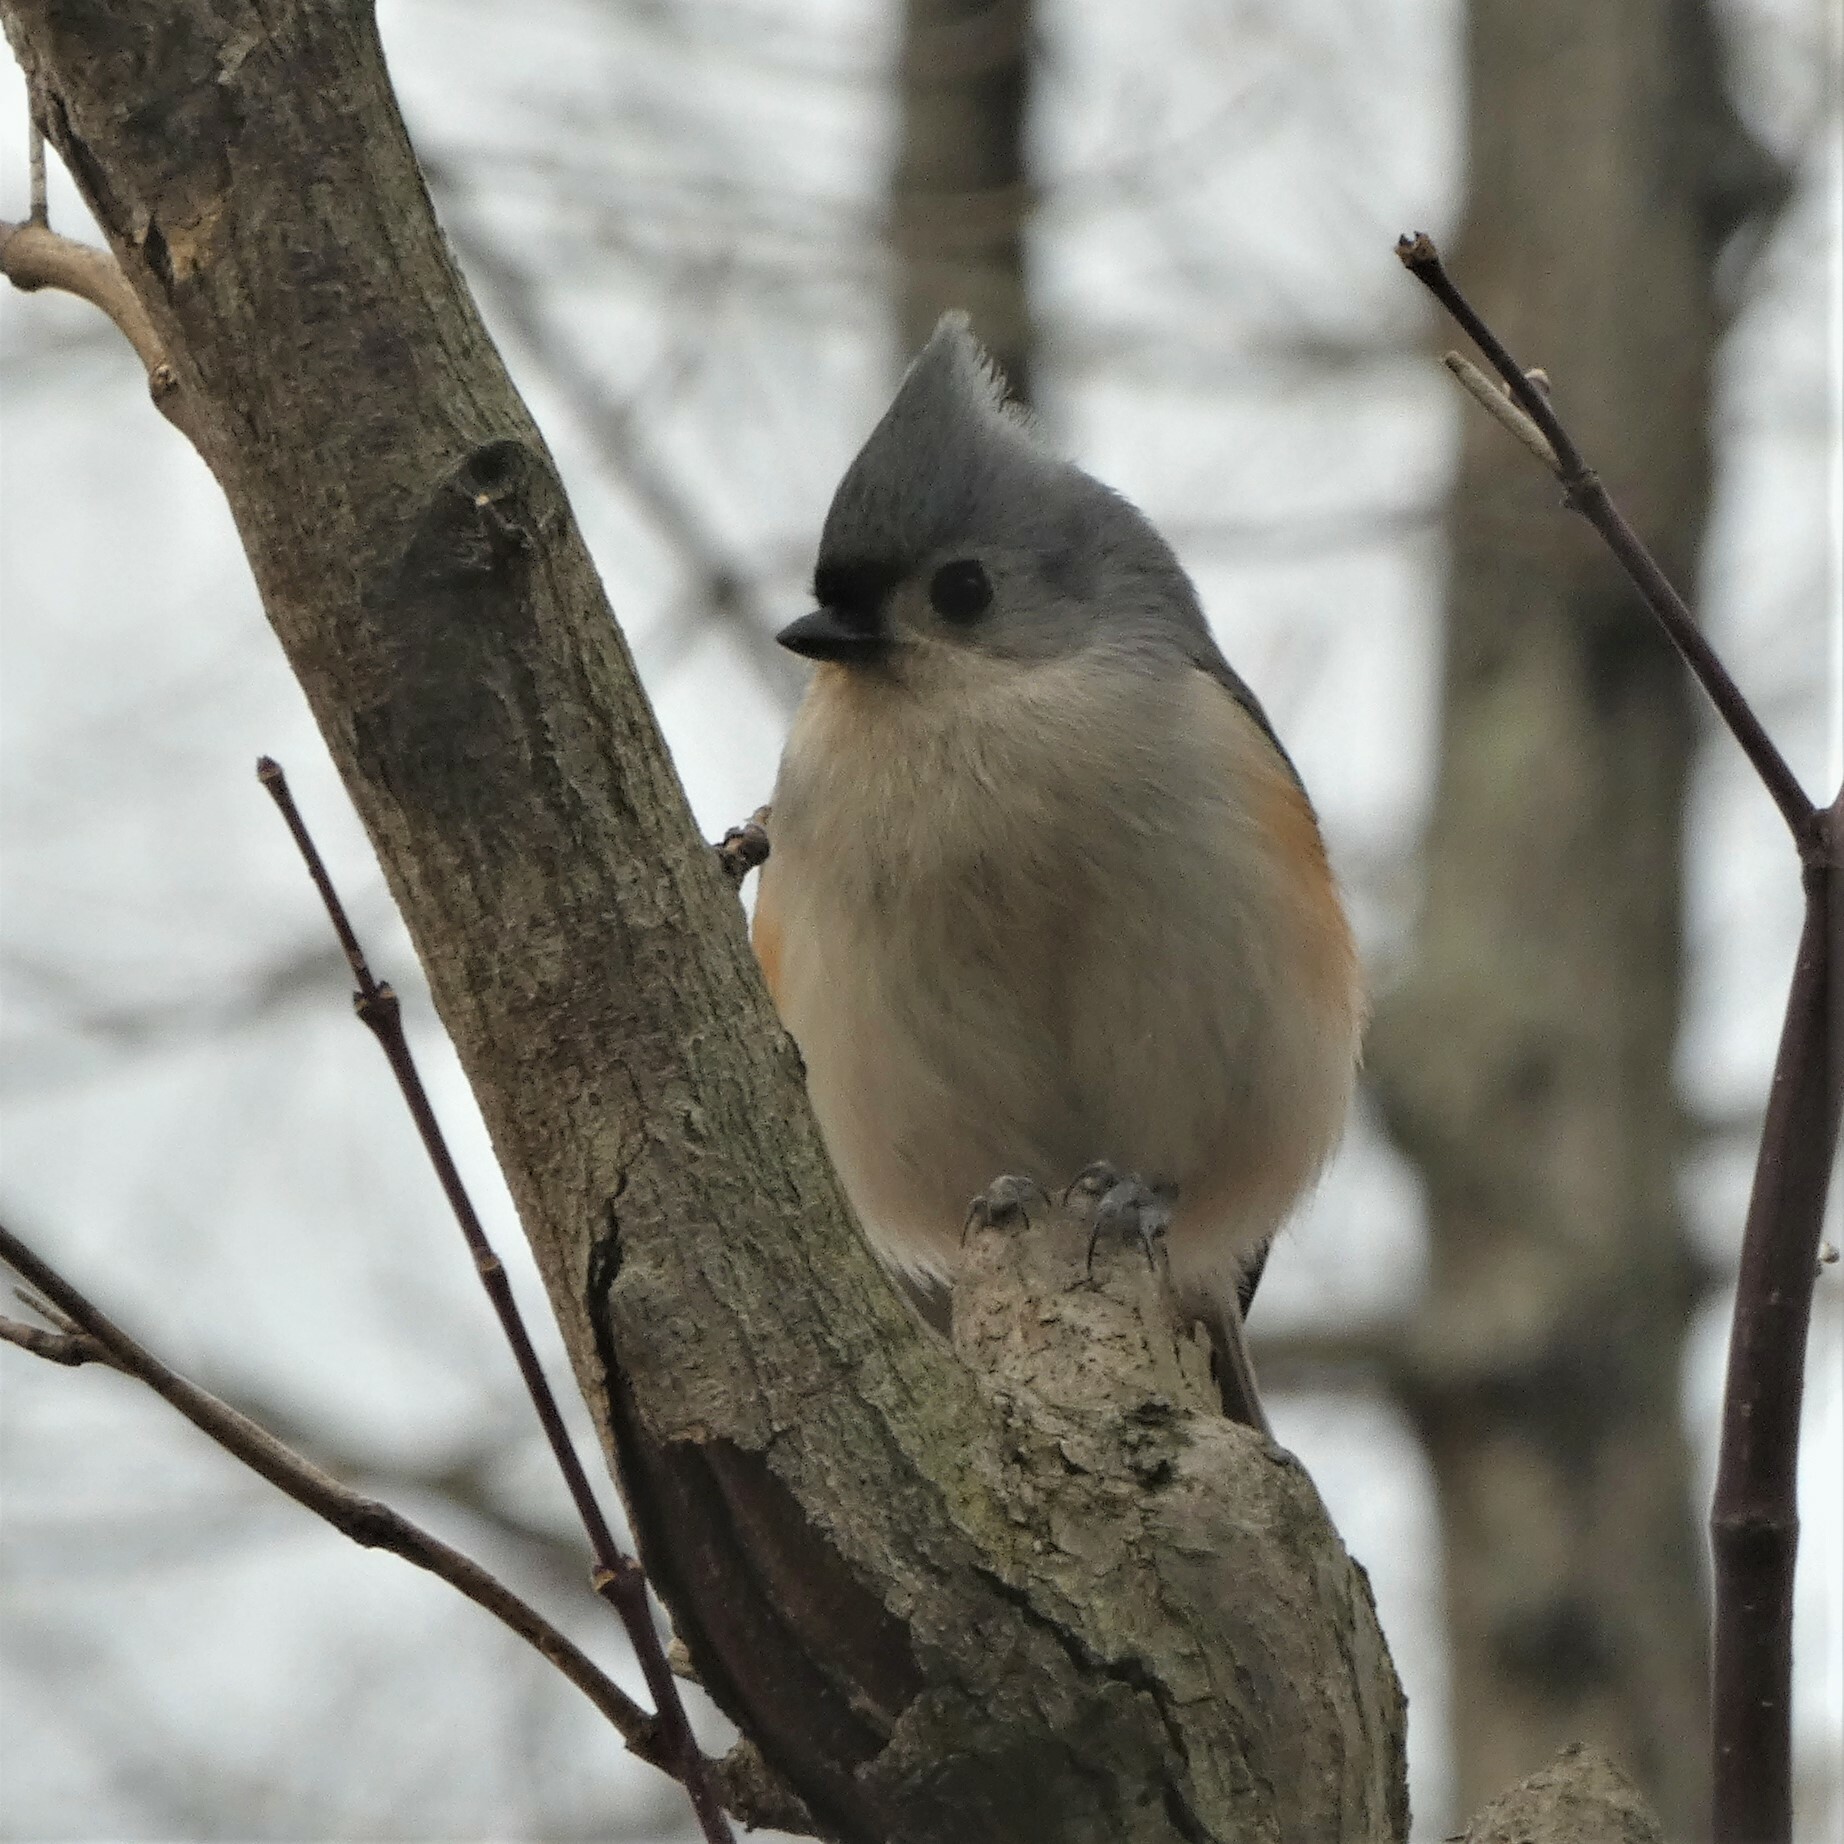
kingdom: Animalia
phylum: Chordata
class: Aves
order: Passeriformes
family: Paridae
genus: Baeolophus
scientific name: Baeolophus bicolor
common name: Tufted titmouse
